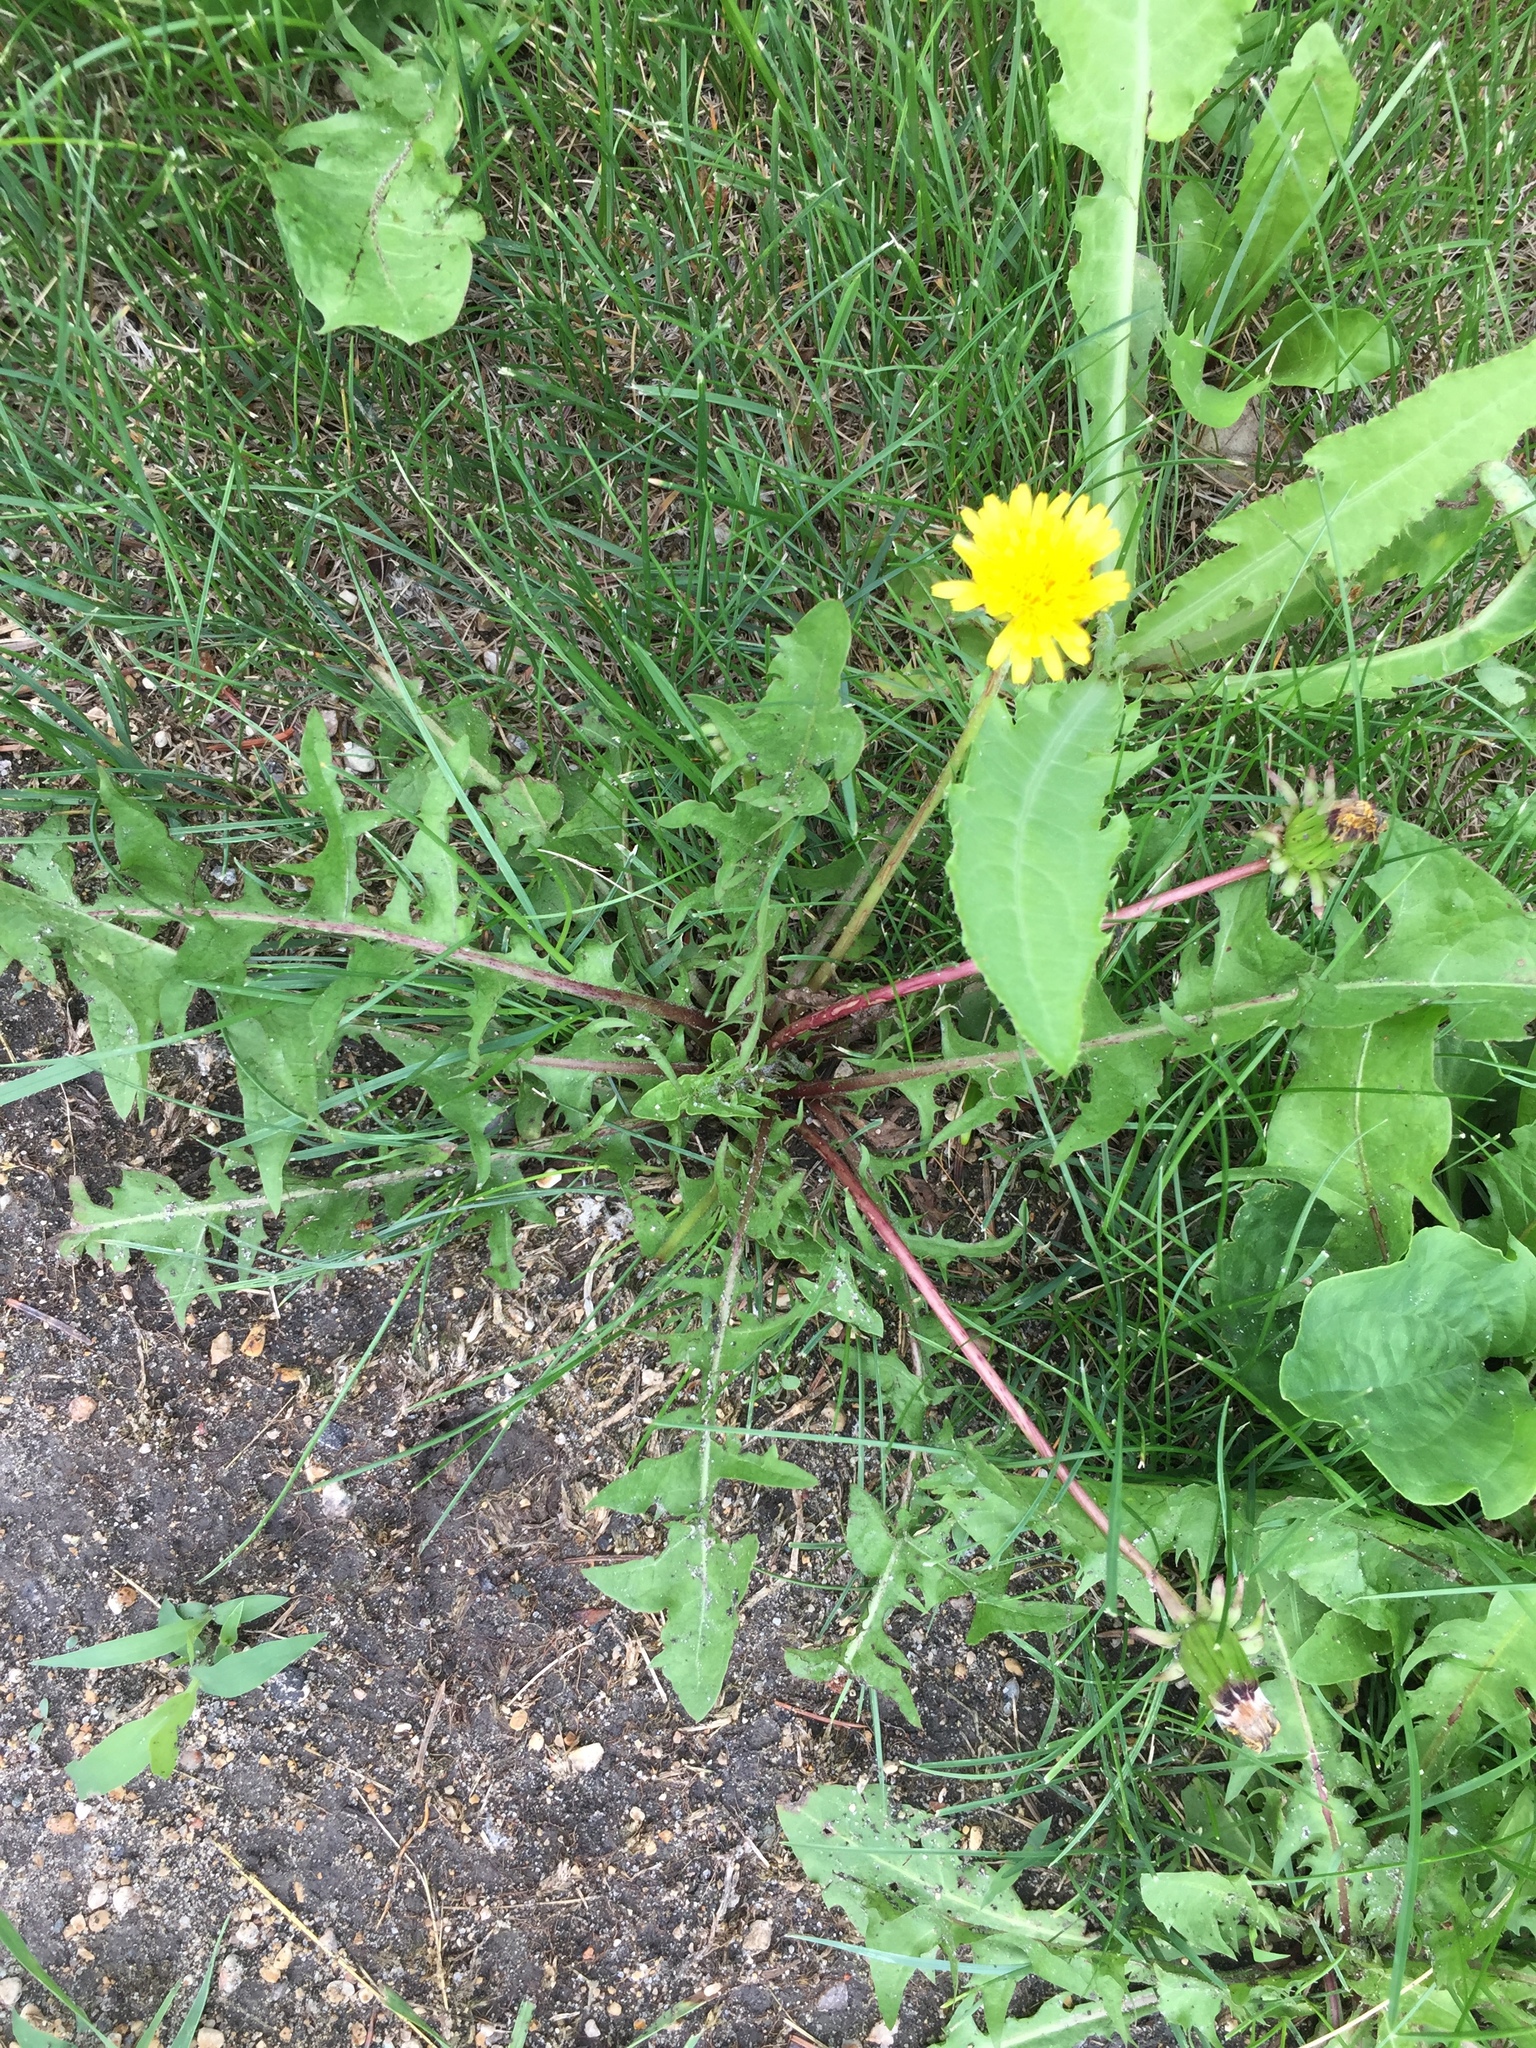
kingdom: Plantae
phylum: Tracheophyta
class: Magnoliopsida
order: Asterales
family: Asteraceae
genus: Taraxacum
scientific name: Taraxacum officinale
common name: Common dandelion
